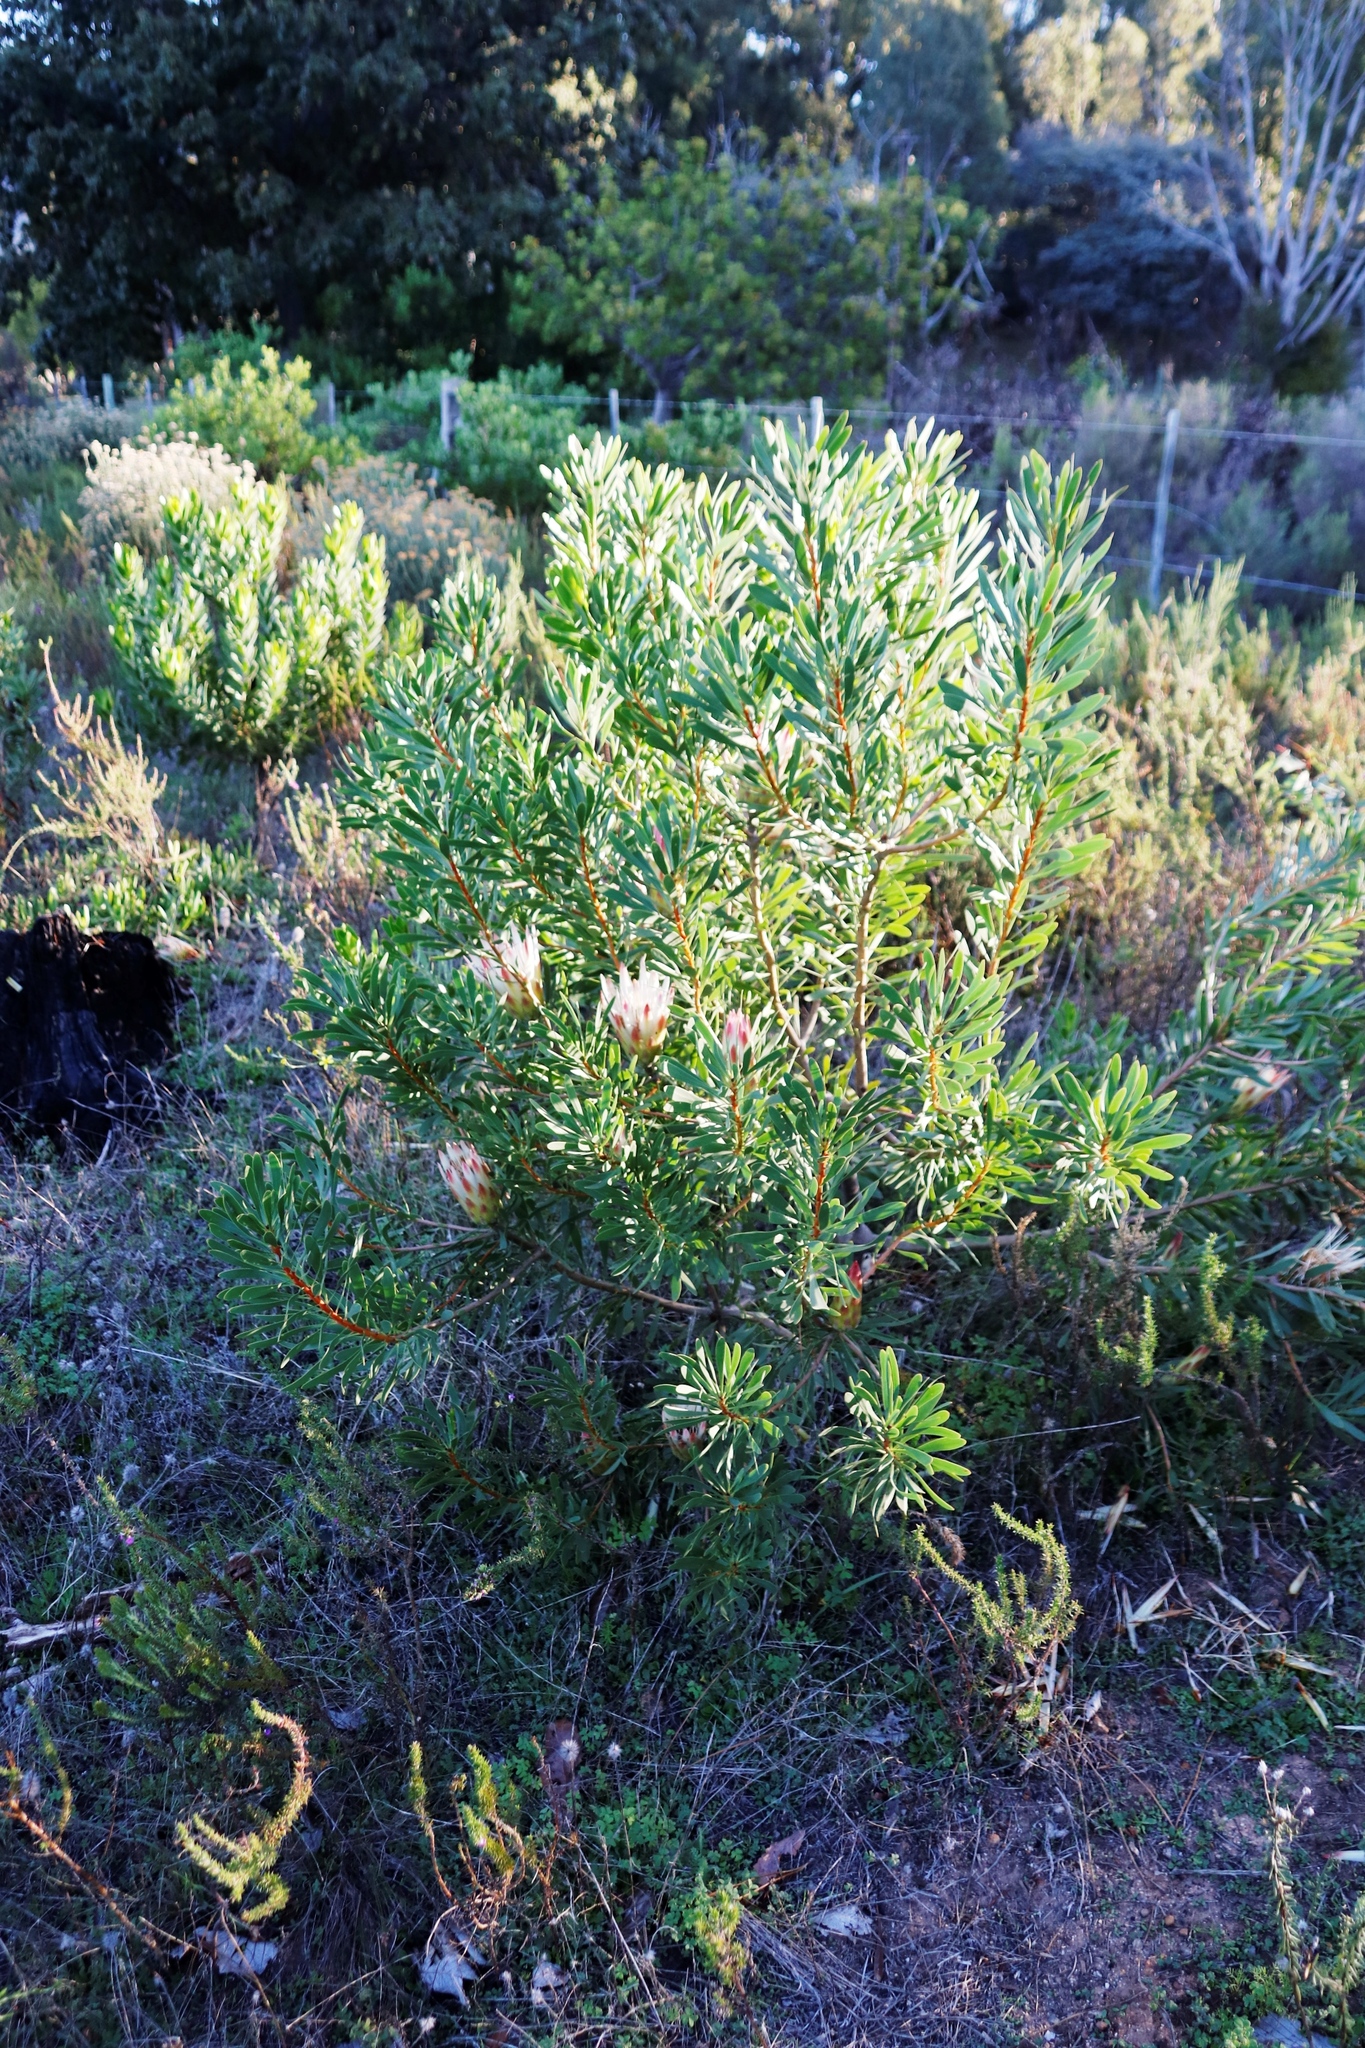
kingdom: Plantae
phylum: Tracheophyta
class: Magnoliopsida
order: Proteales
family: Proteaceae
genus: Protea
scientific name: Protea repens
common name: Sugarbush
